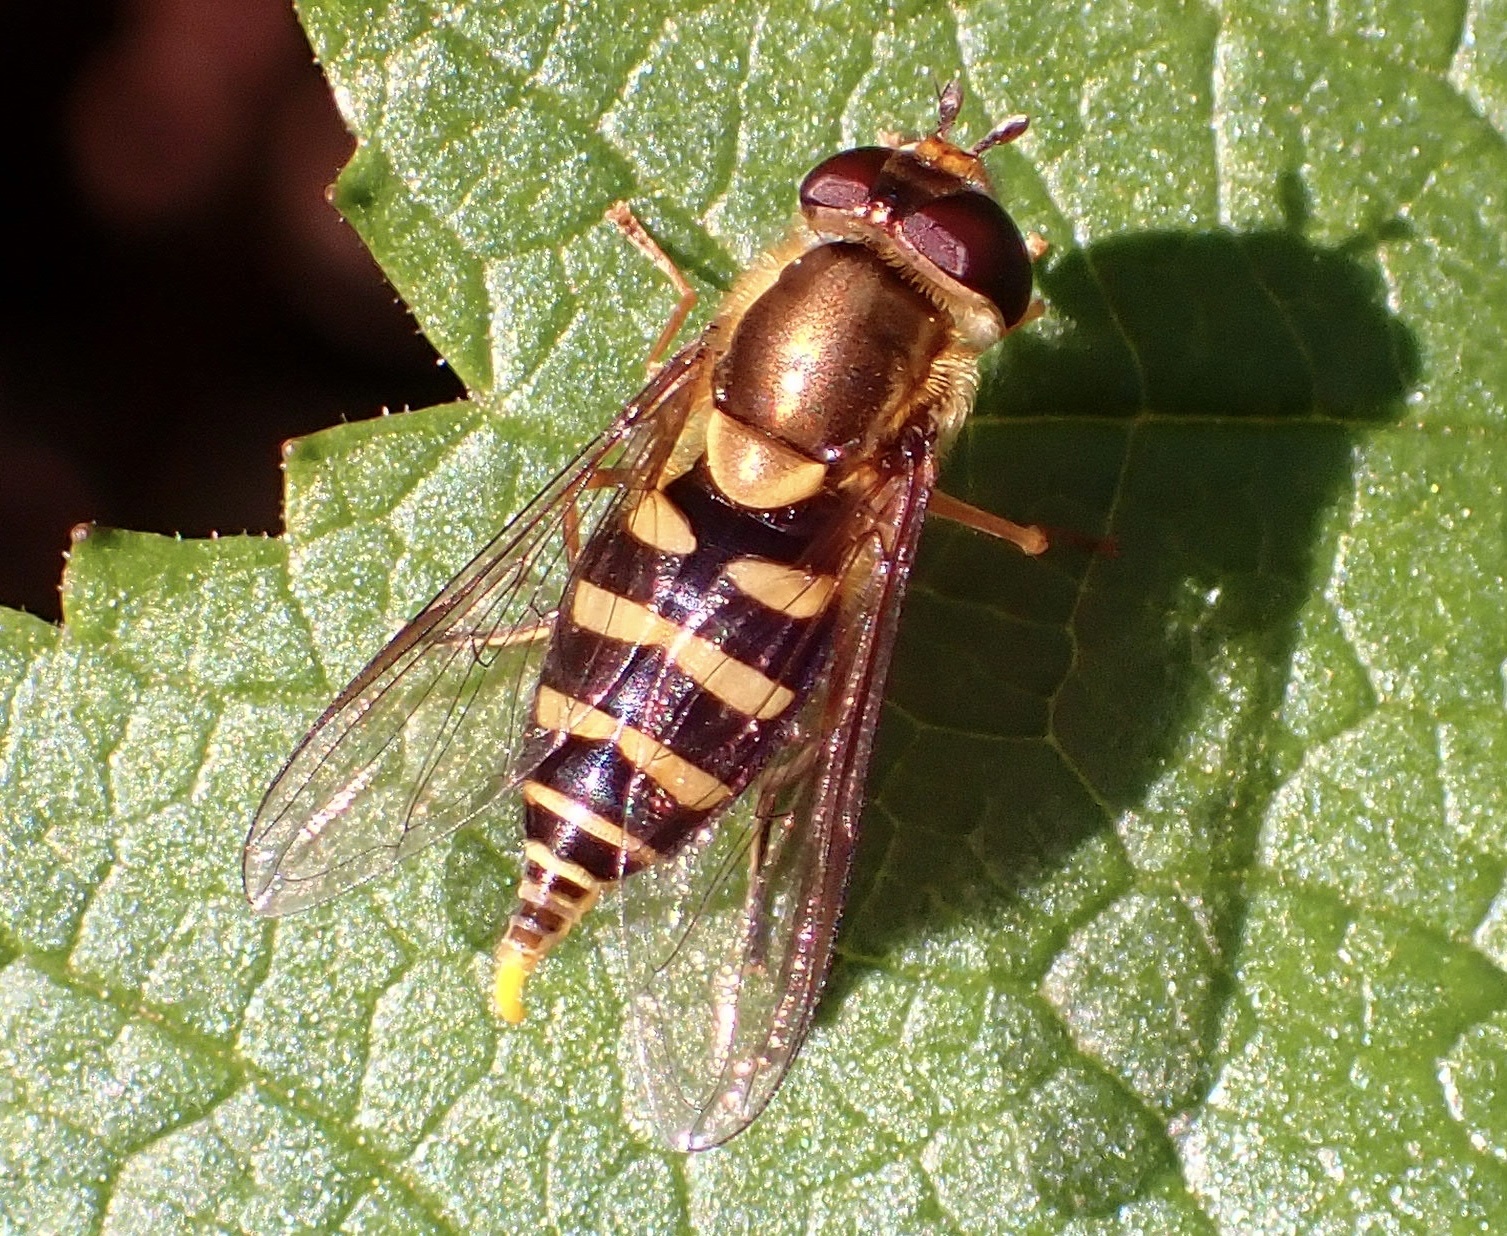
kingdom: Animalia
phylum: Arthropoda
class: Insecta
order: Diptera
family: Syrphidae
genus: Syrphus
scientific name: Syrphus opinator
